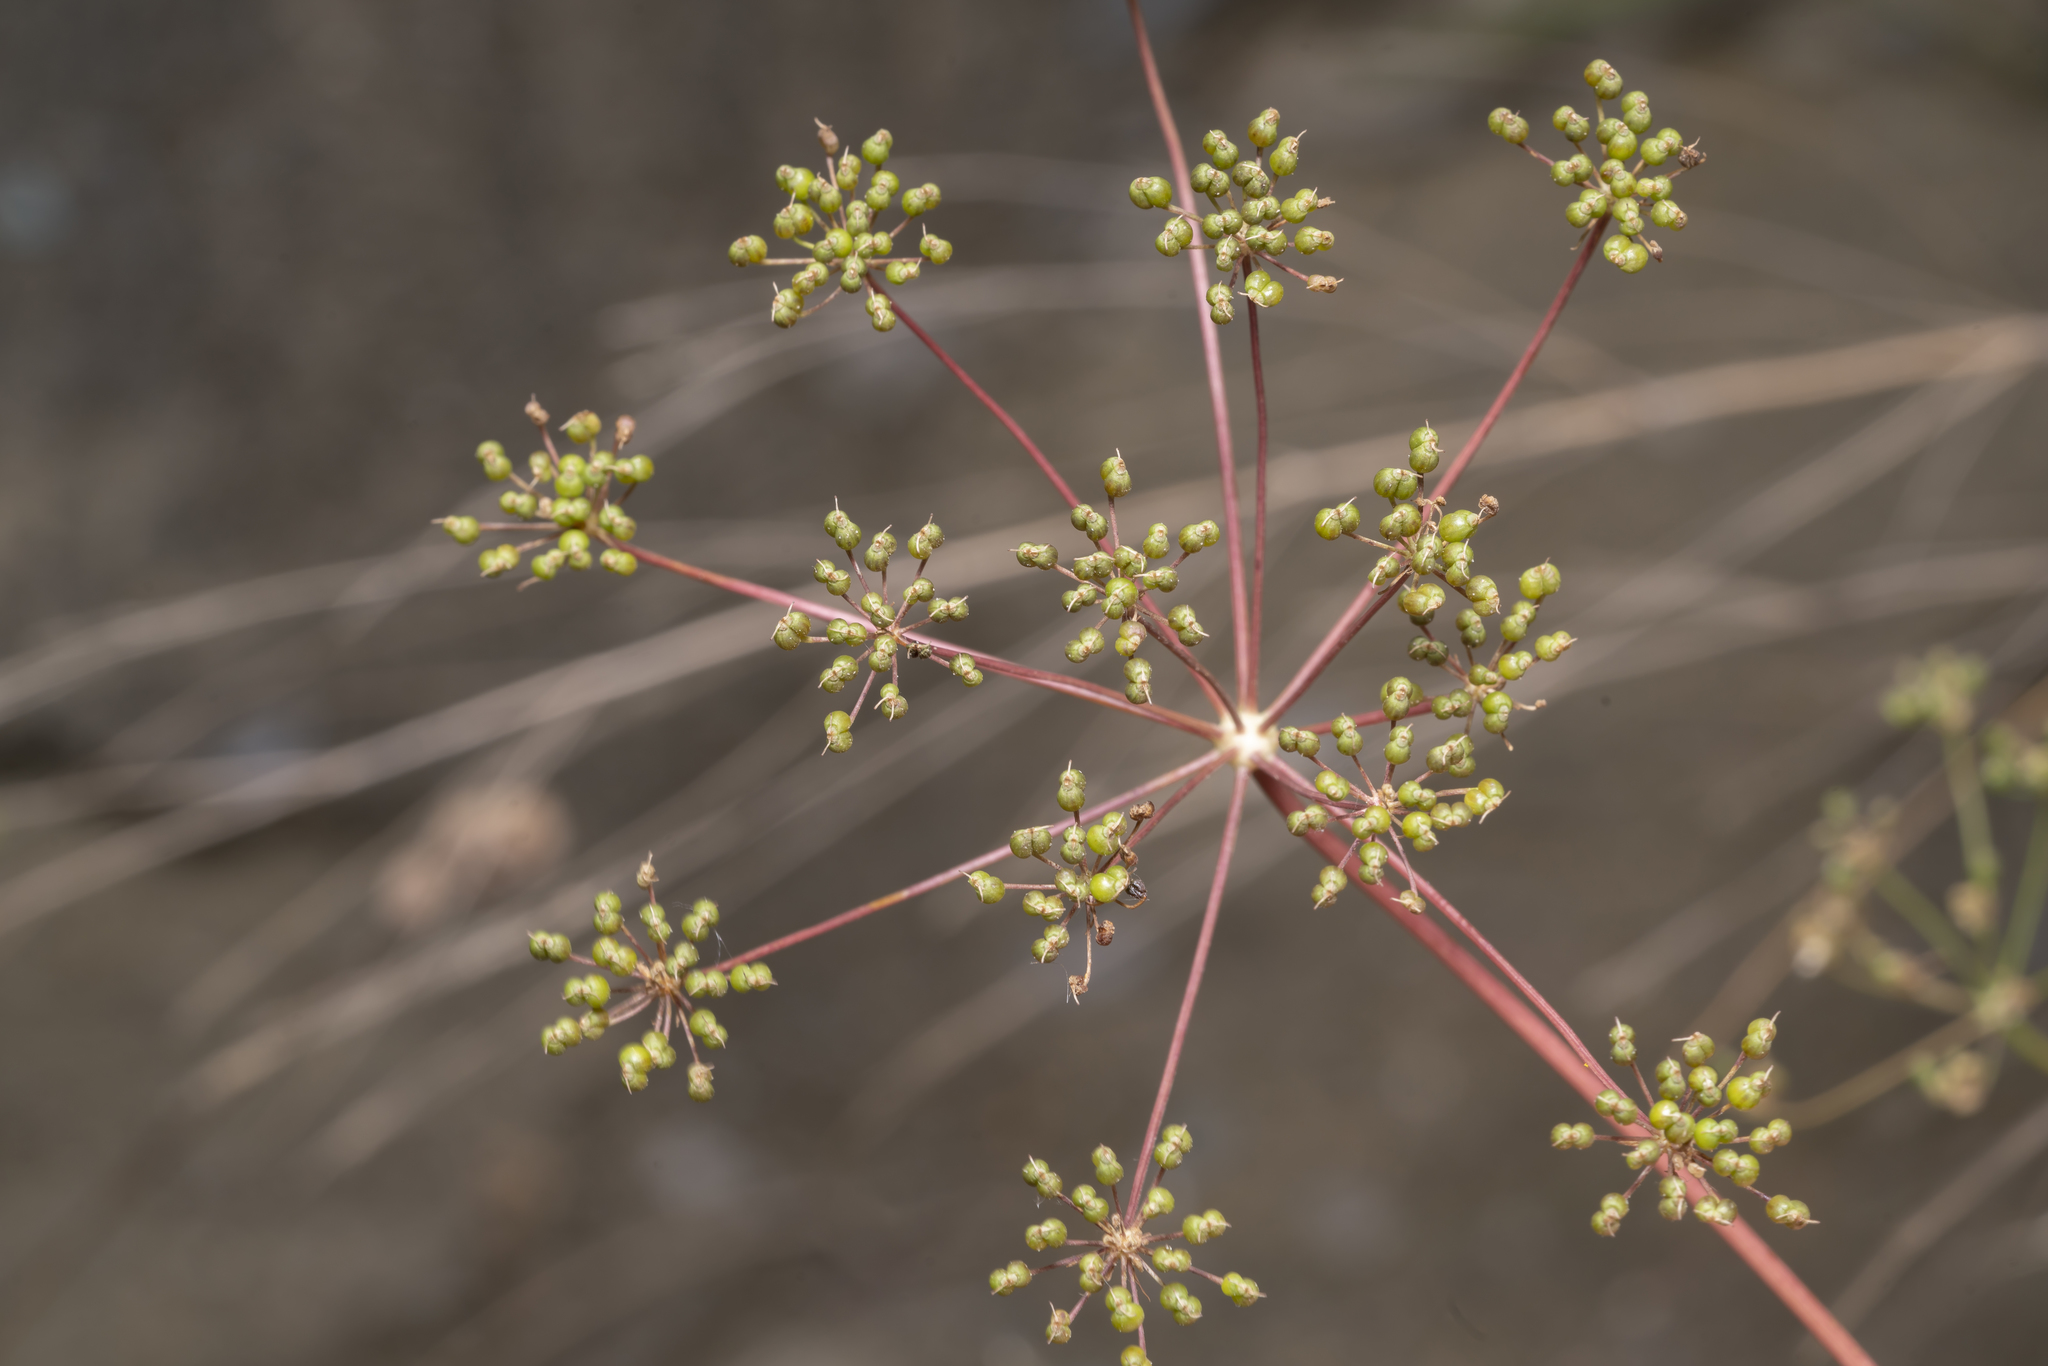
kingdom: Plantae
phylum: Tracheophyta
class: Magnoliopsida
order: Apiales
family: Apiaceae
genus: Scaligeria
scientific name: Scaligeria napiformis
